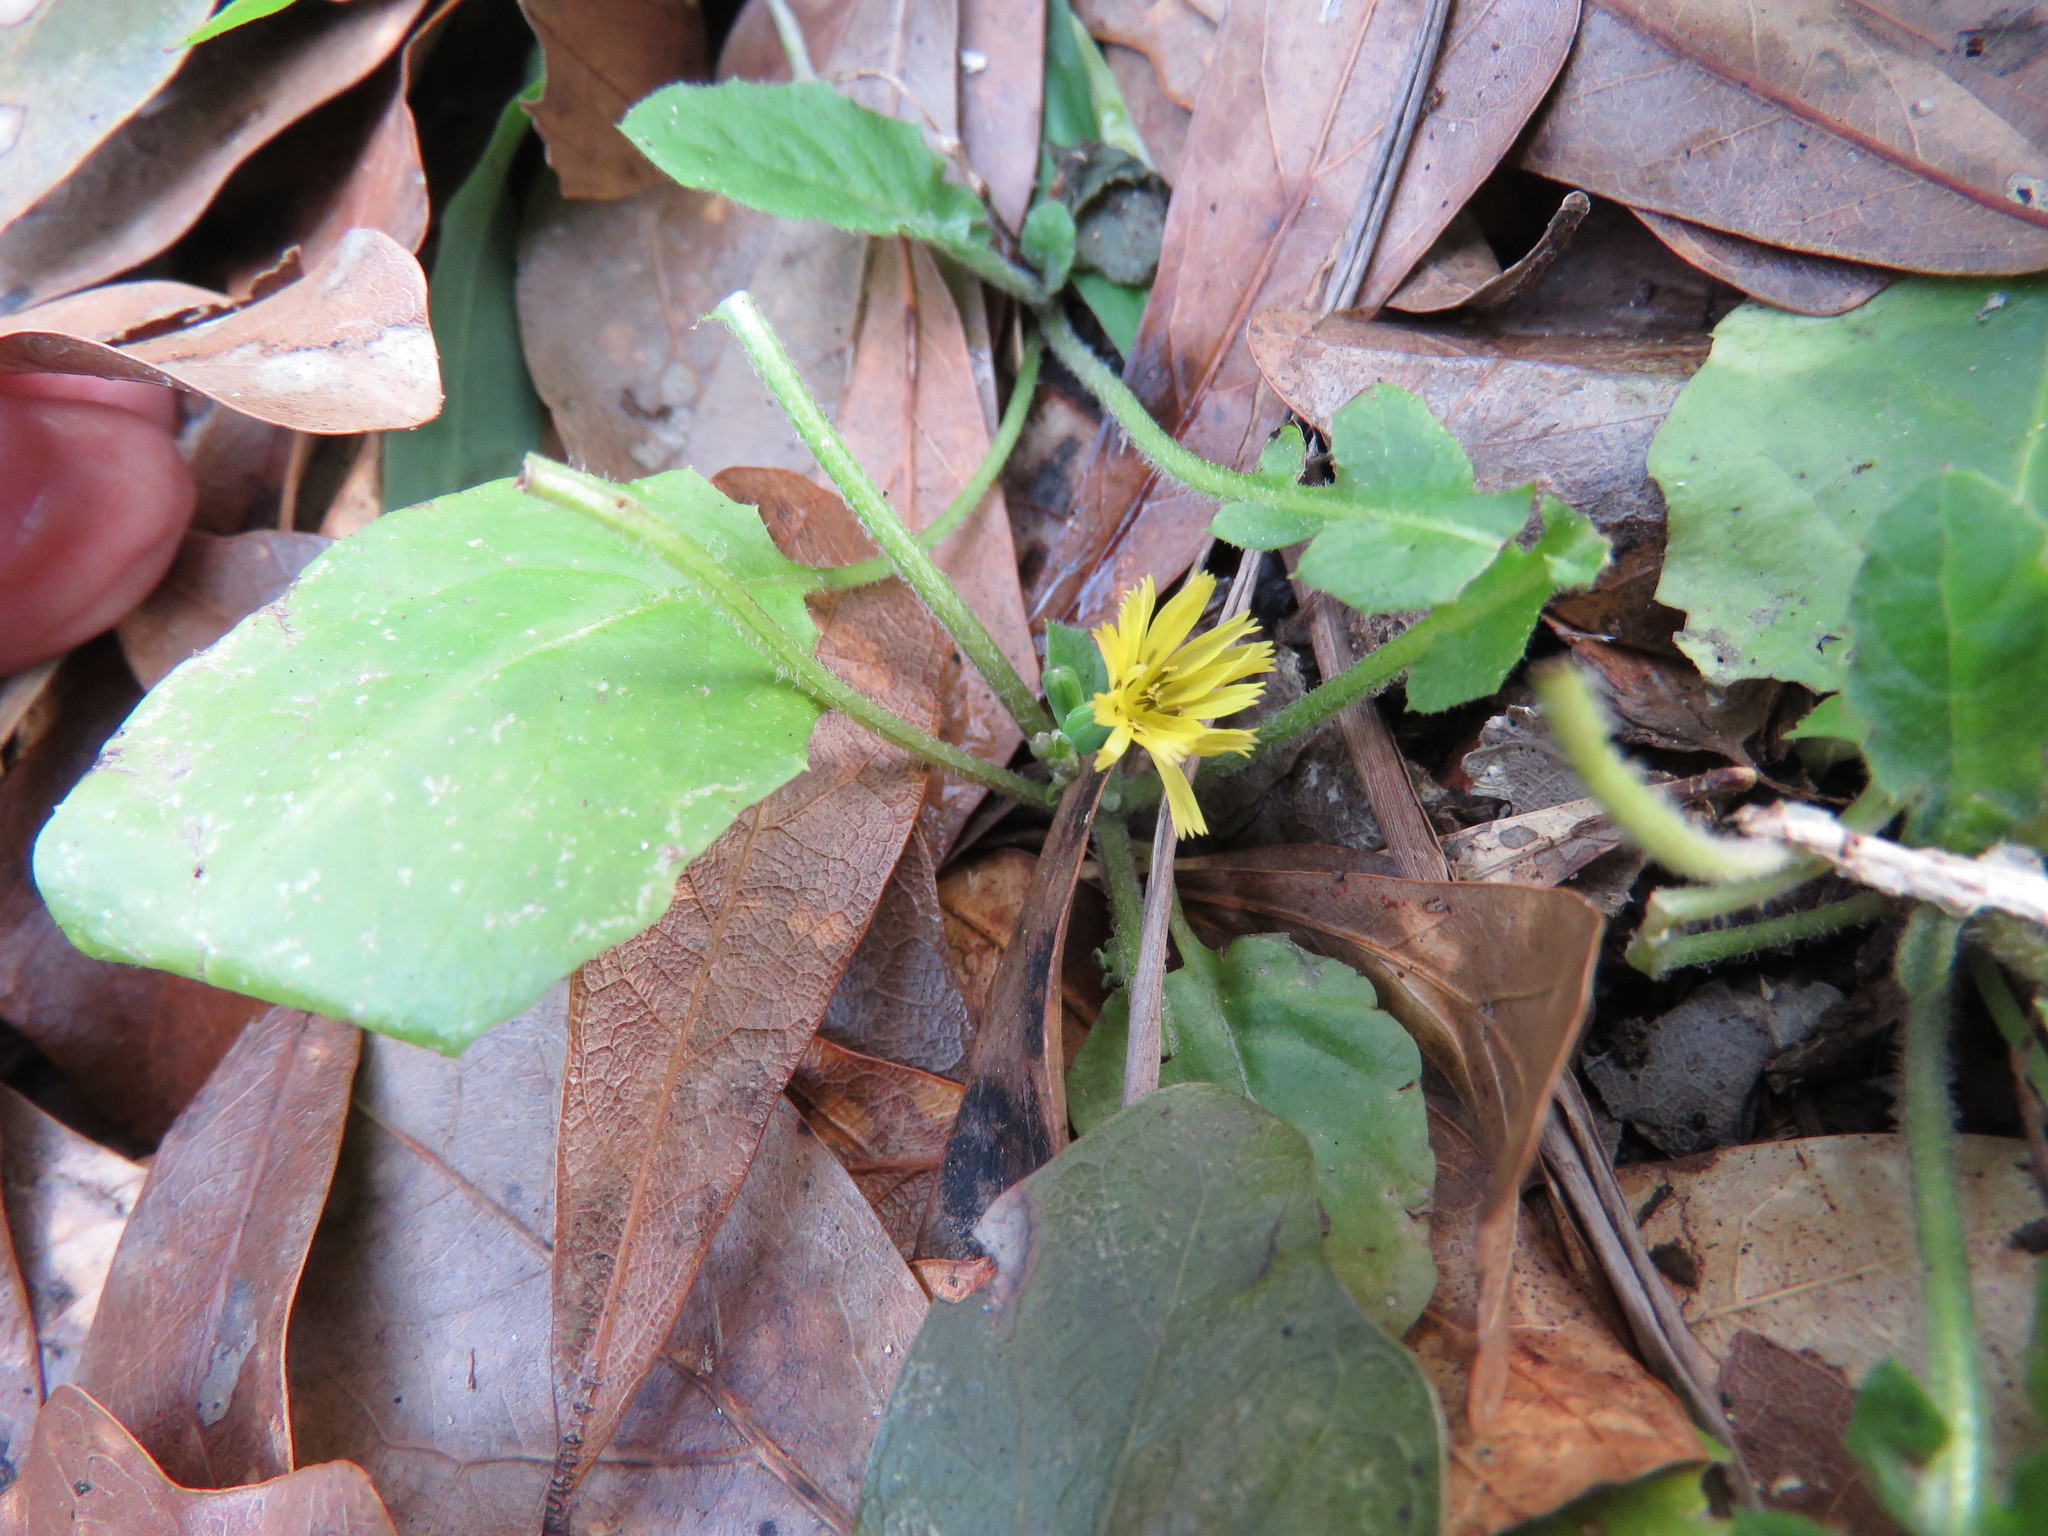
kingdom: Plantae
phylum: Tracheophyta
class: Magnoliopsida
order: Asterales
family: Asteraceae
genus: Youngia
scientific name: Youngia japonica
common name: Oriental false hawksbeard
